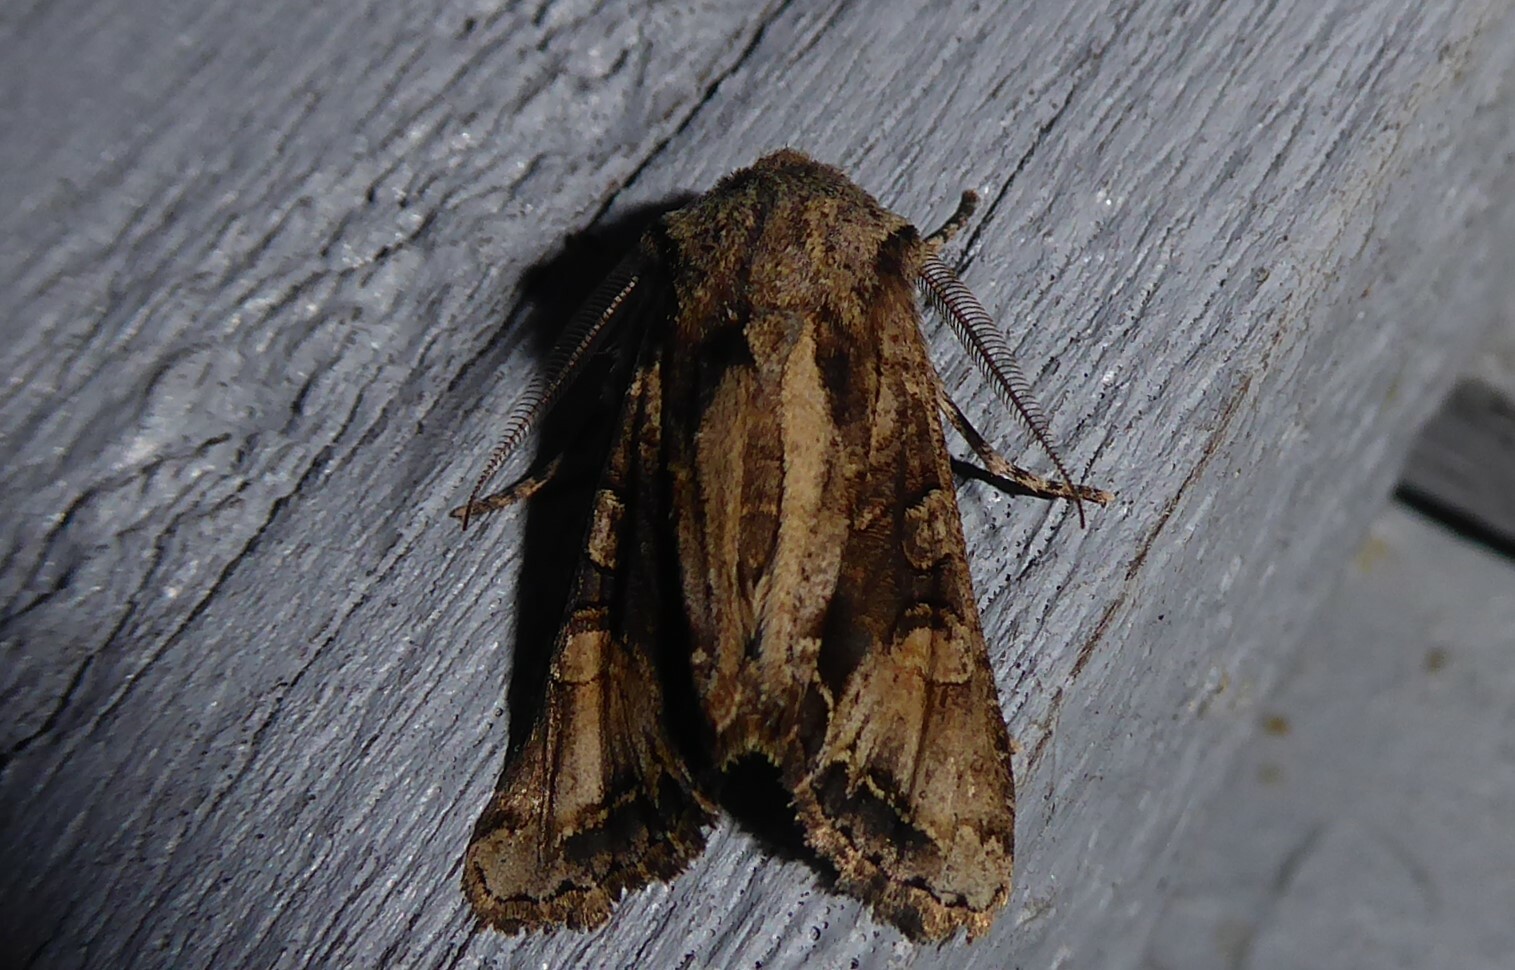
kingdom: Animalia
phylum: Arthropoda
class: Insecta
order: Lepidoptera
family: Noctuidae
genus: Ichneutica
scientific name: Ichneutica
